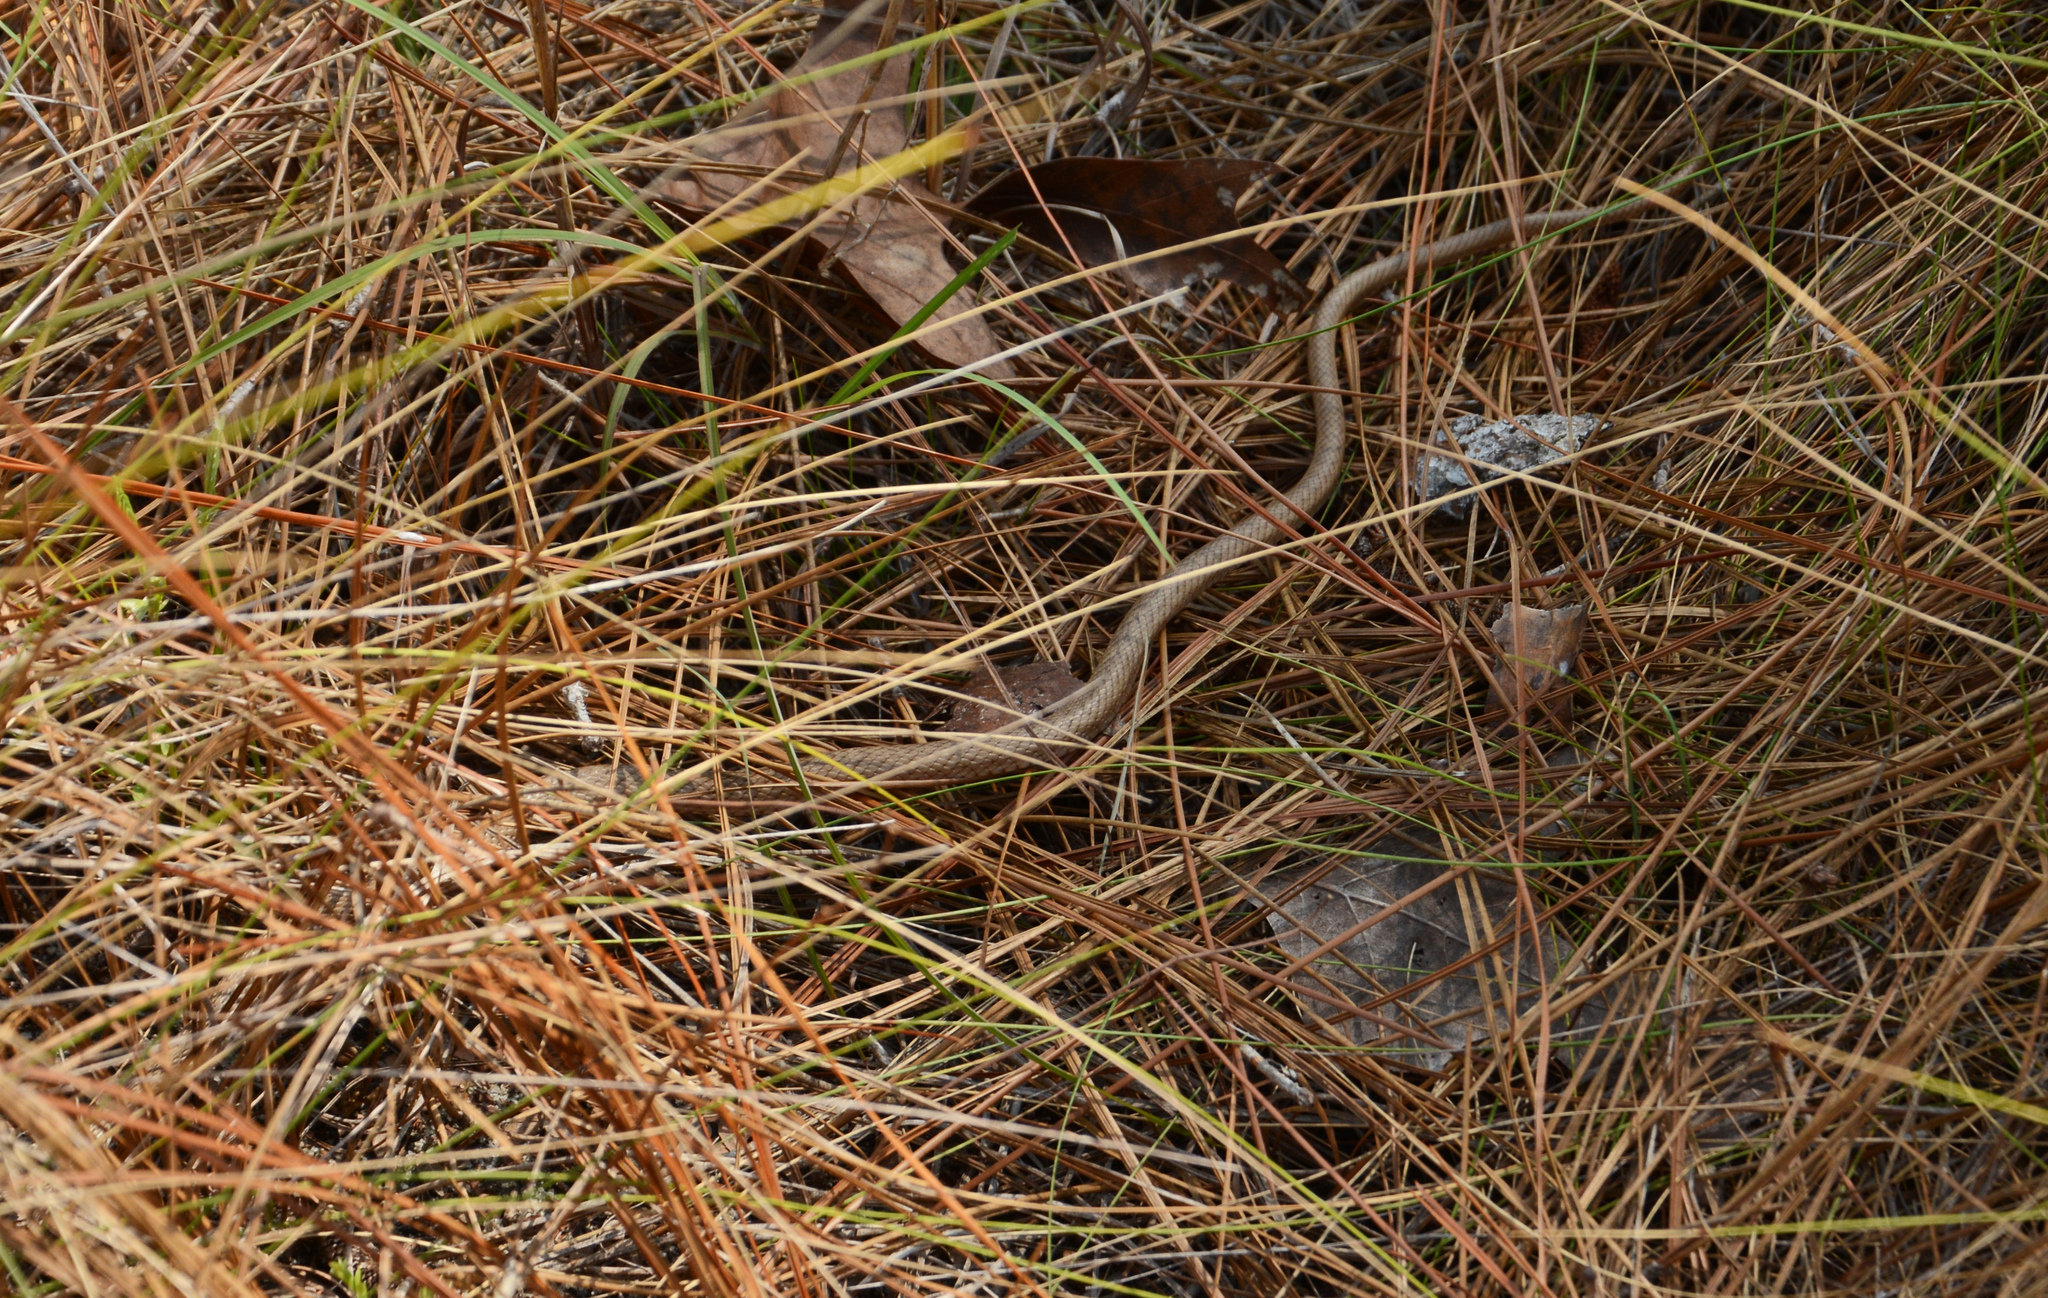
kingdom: Animalia
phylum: Chordata
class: Squamata
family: Colubridae
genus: Masticophis
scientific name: Masticophis flagellum
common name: Coachwhip
